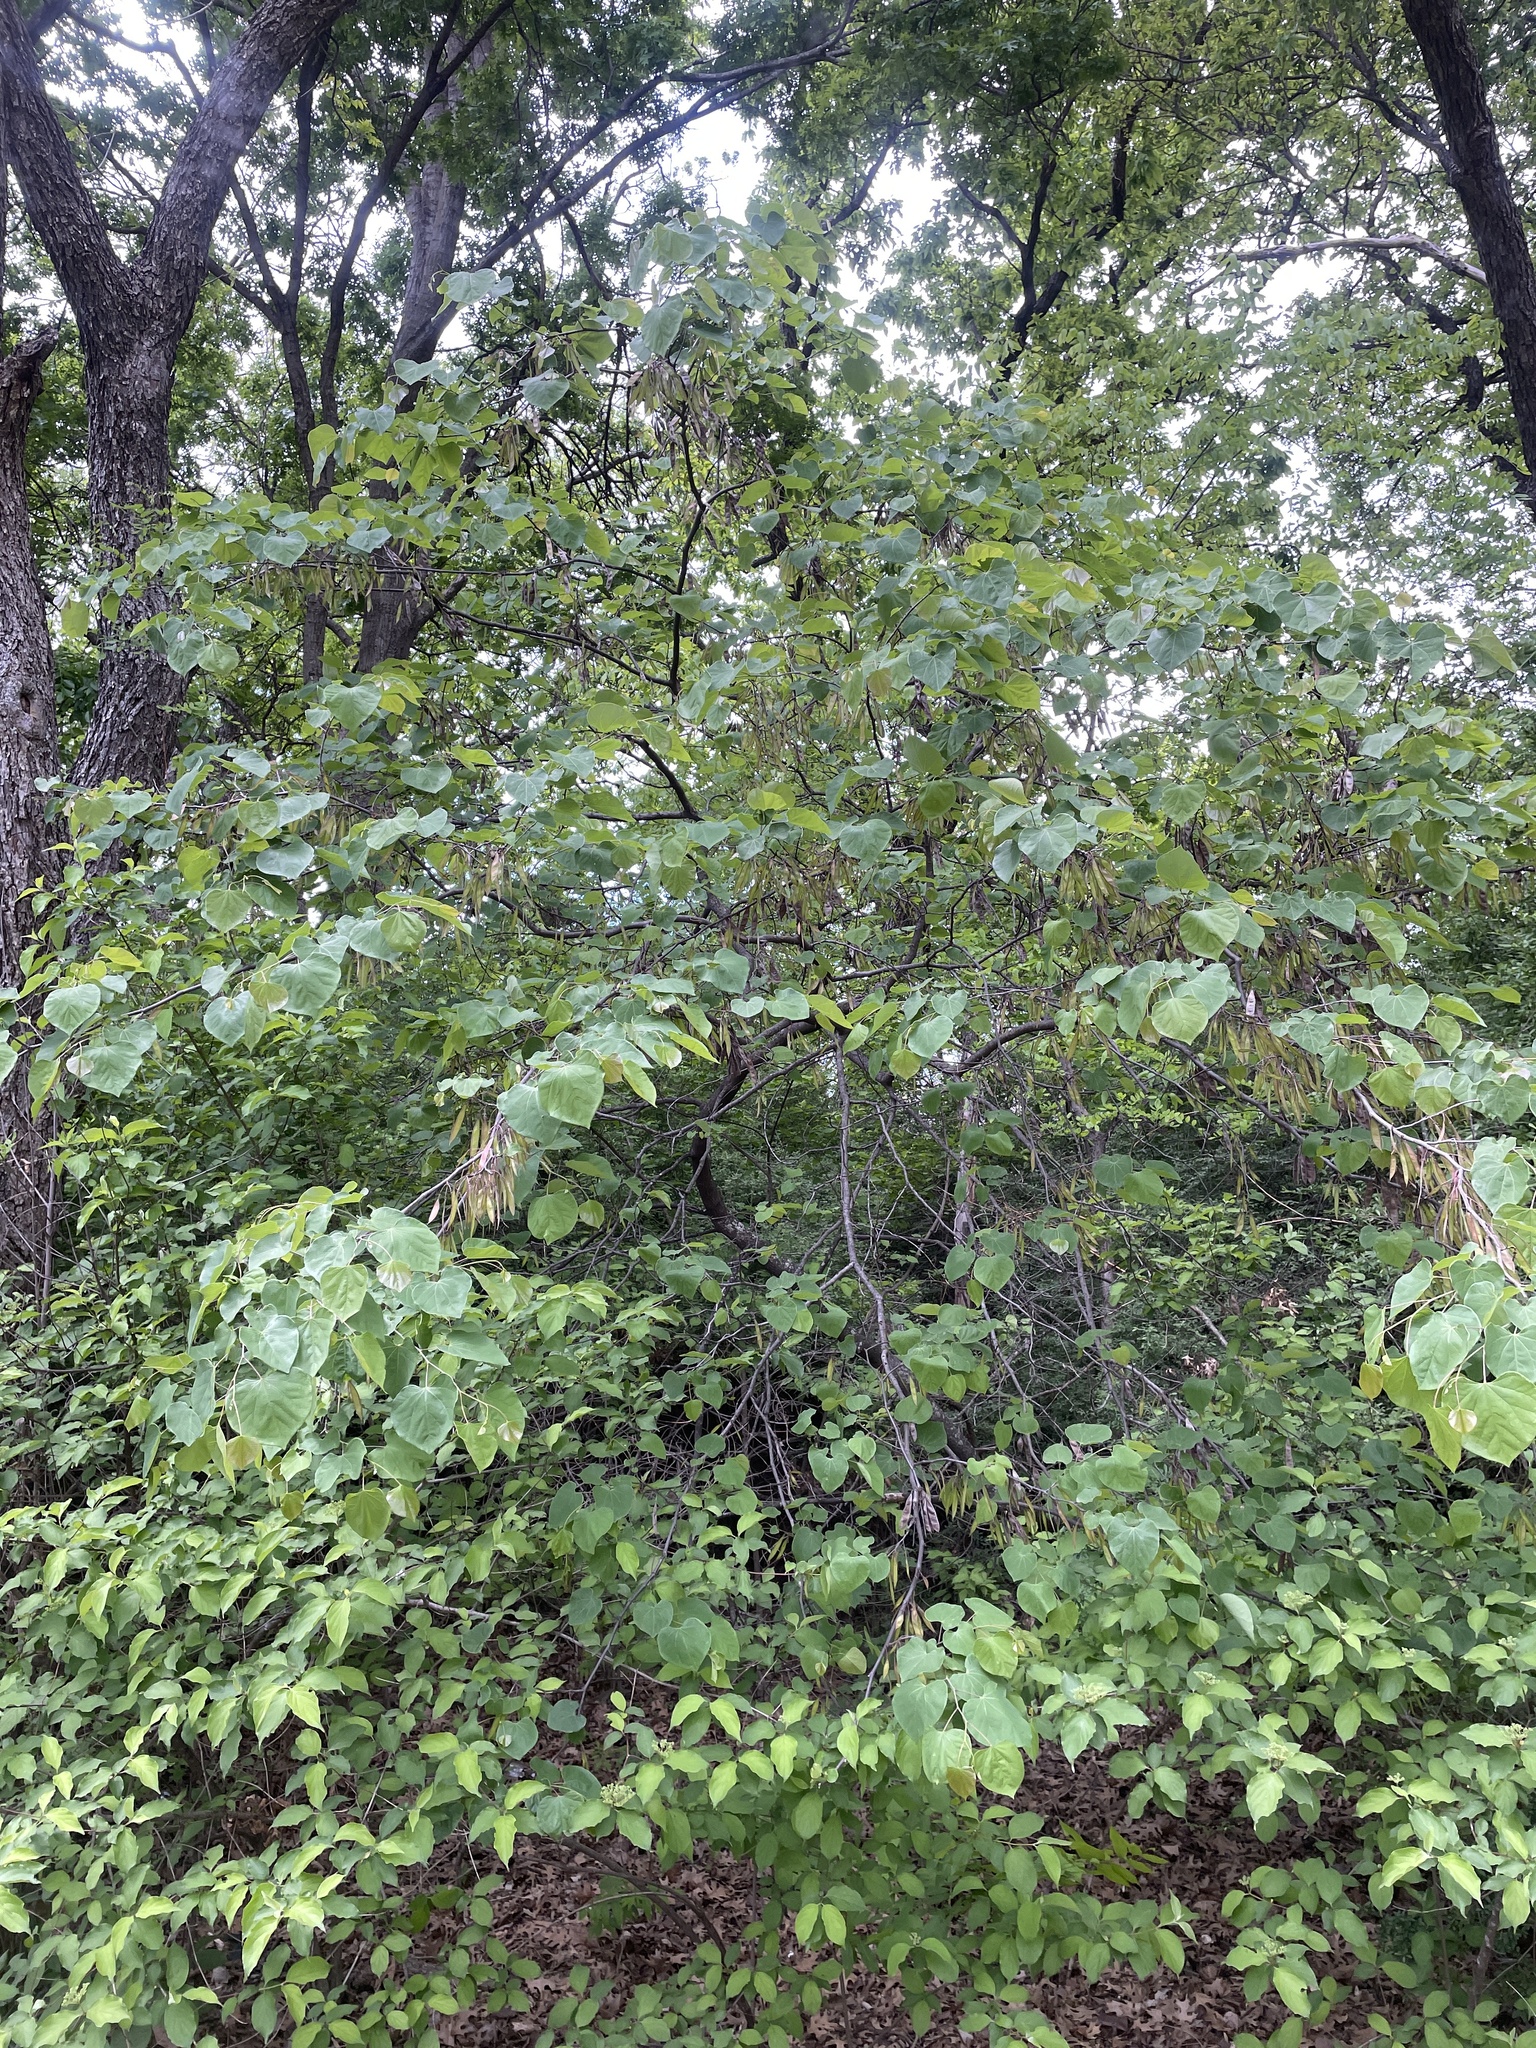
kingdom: Plantae
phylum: Tracheophyta
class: Magnoliopsida
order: Fabales
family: Fabaceae
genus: Cercis
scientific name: Cercis canadensis
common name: Eastern redbud
